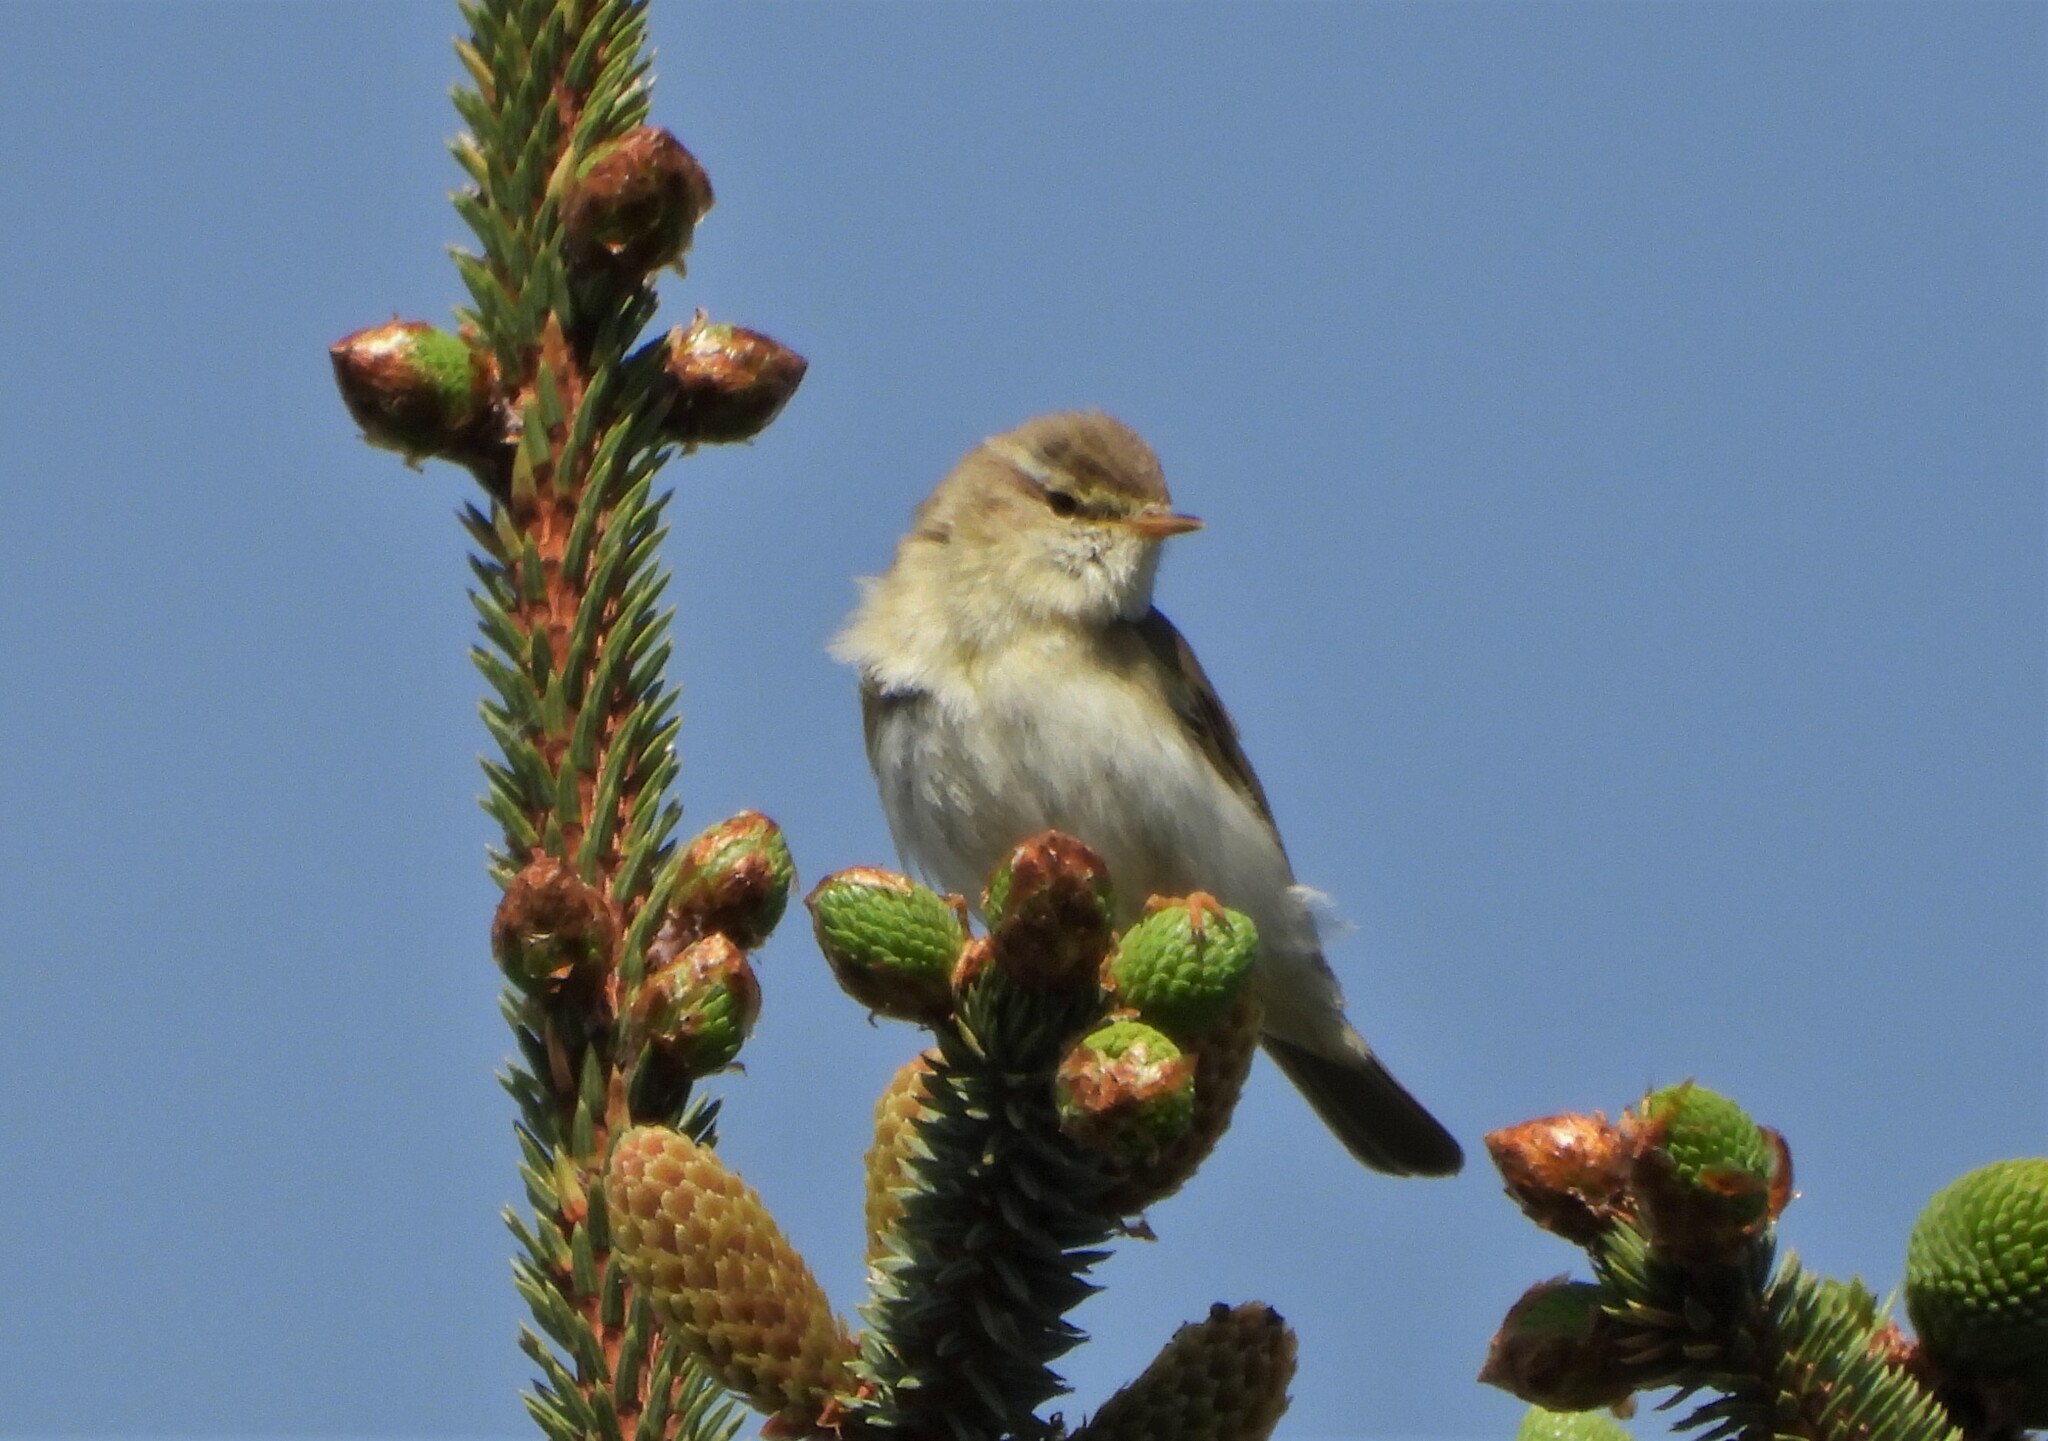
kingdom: Animalia
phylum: Chordata
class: Aves
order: Passeriformes
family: Phylloscopidae
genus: Phylloscopus
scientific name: Phylloscopus trochilus
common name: Willow warbler
